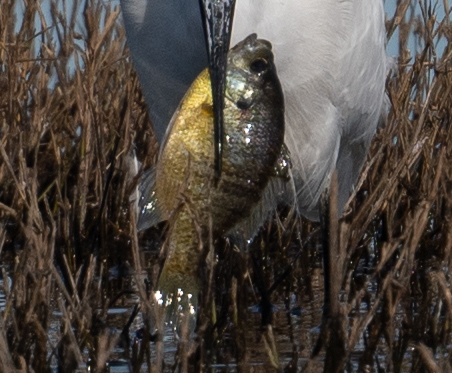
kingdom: Animalia
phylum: Chordata
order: Perciformes
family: Centrarchidae
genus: Lepomis
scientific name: Lepomis macrochirus
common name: Bluegill
